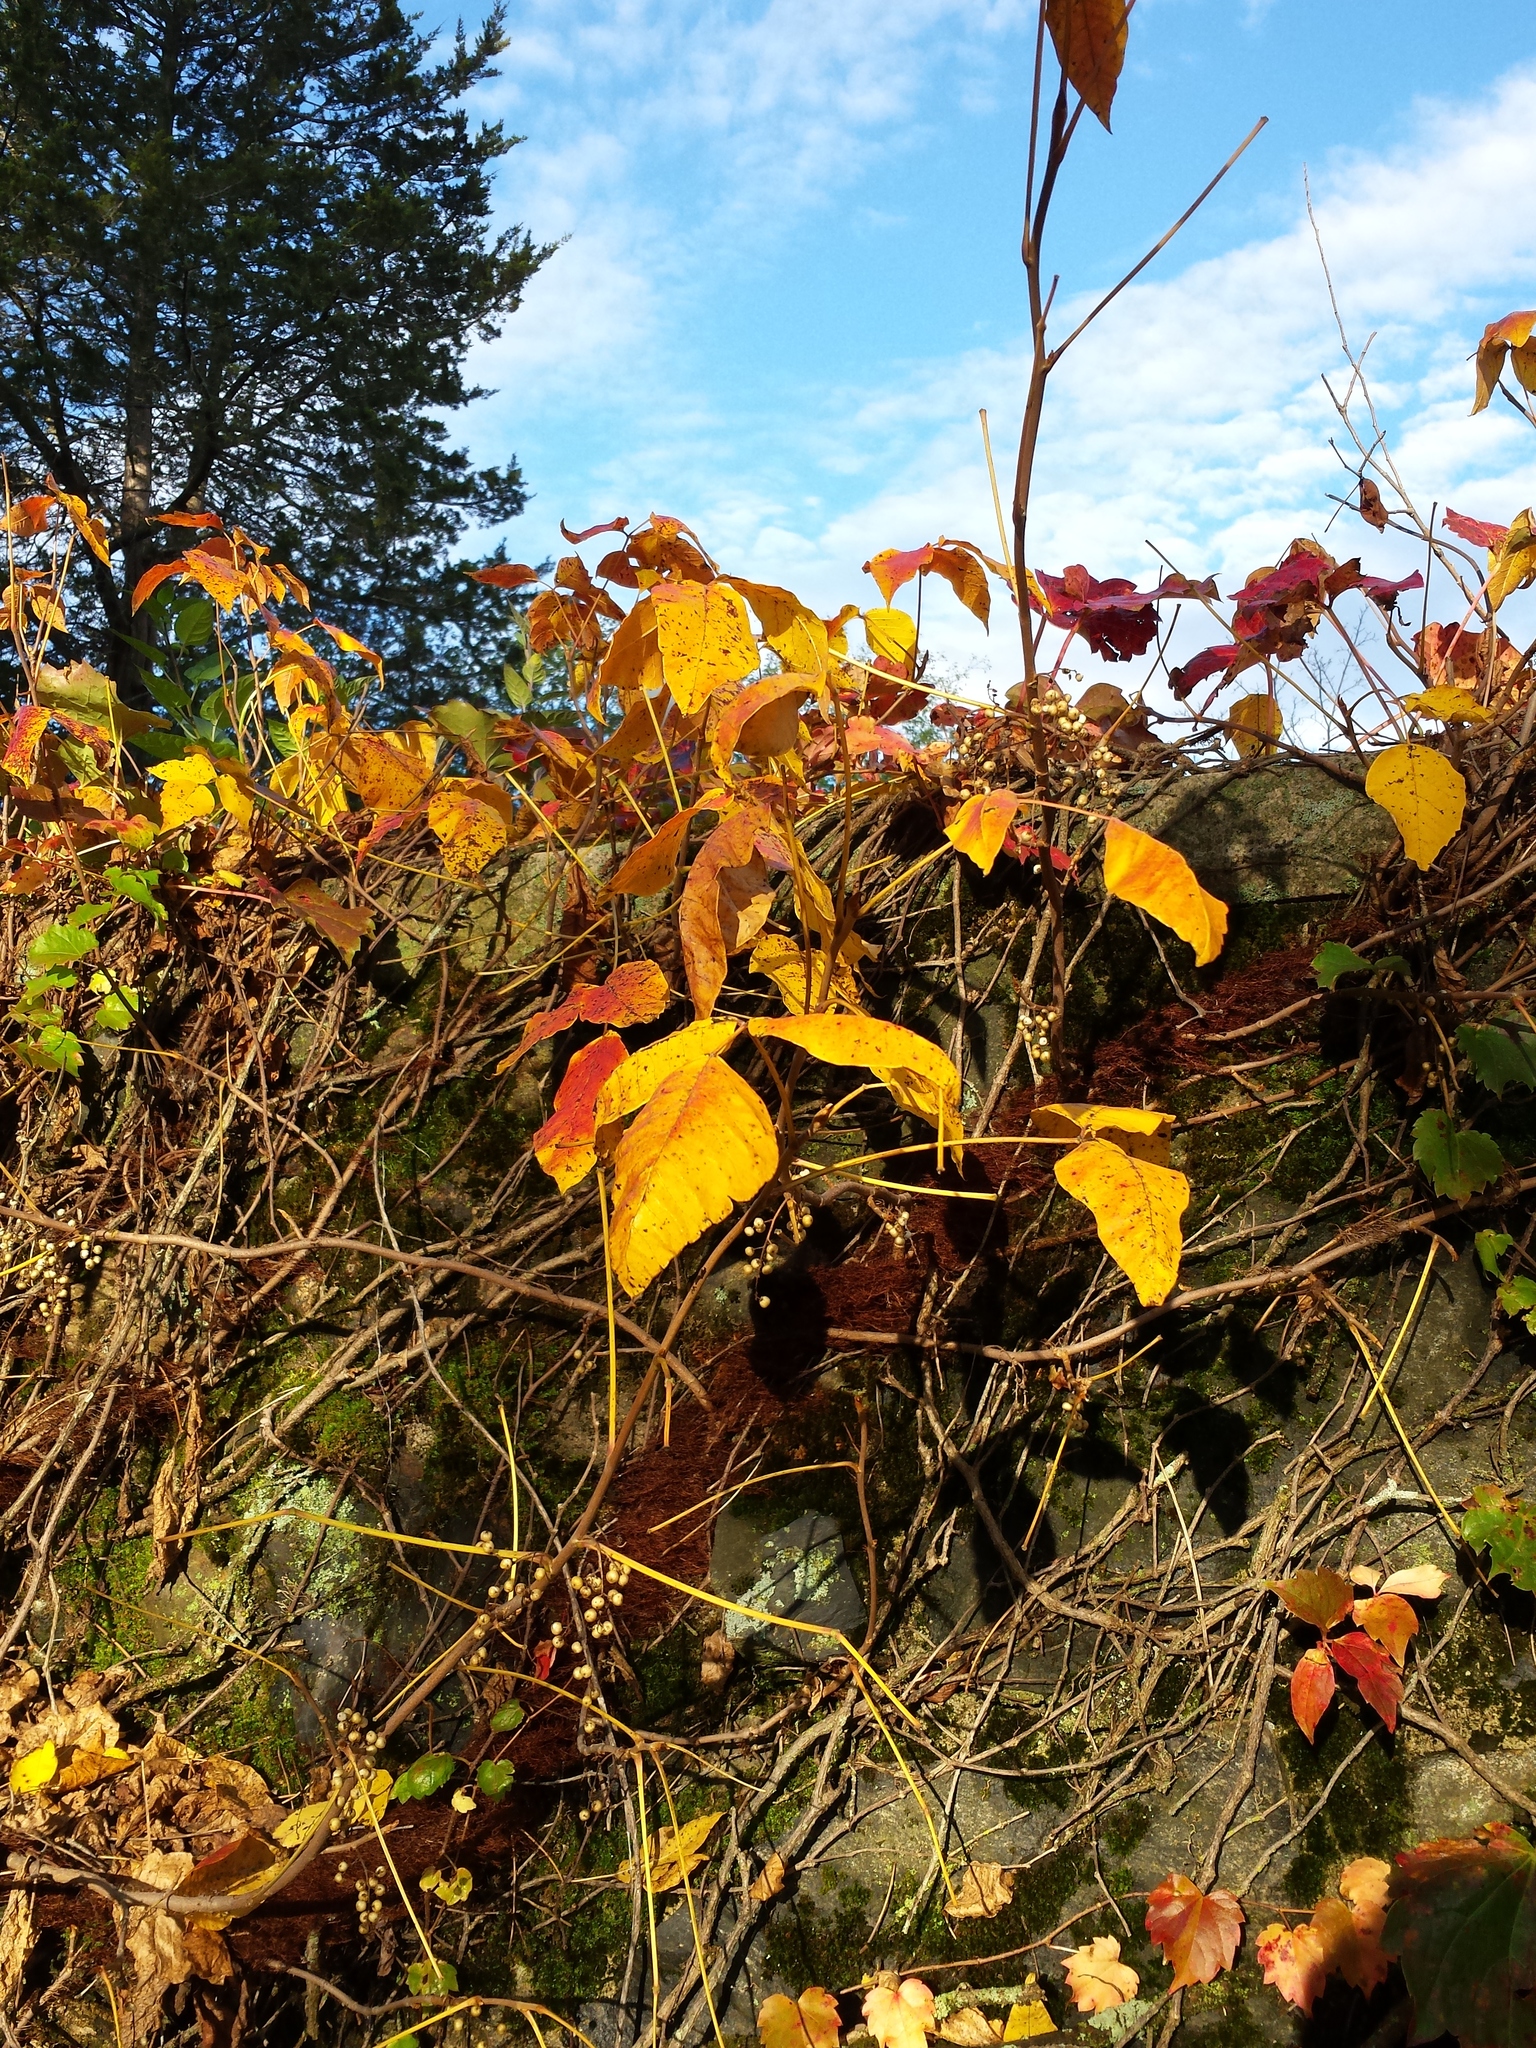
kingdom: Plantae
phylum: Tracheophyta
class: Magnoliopsida
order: Sapindales
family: Anacardiaceae
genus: Toxicodendron
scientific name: Toxicodendron radicans
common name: Poison ivy
